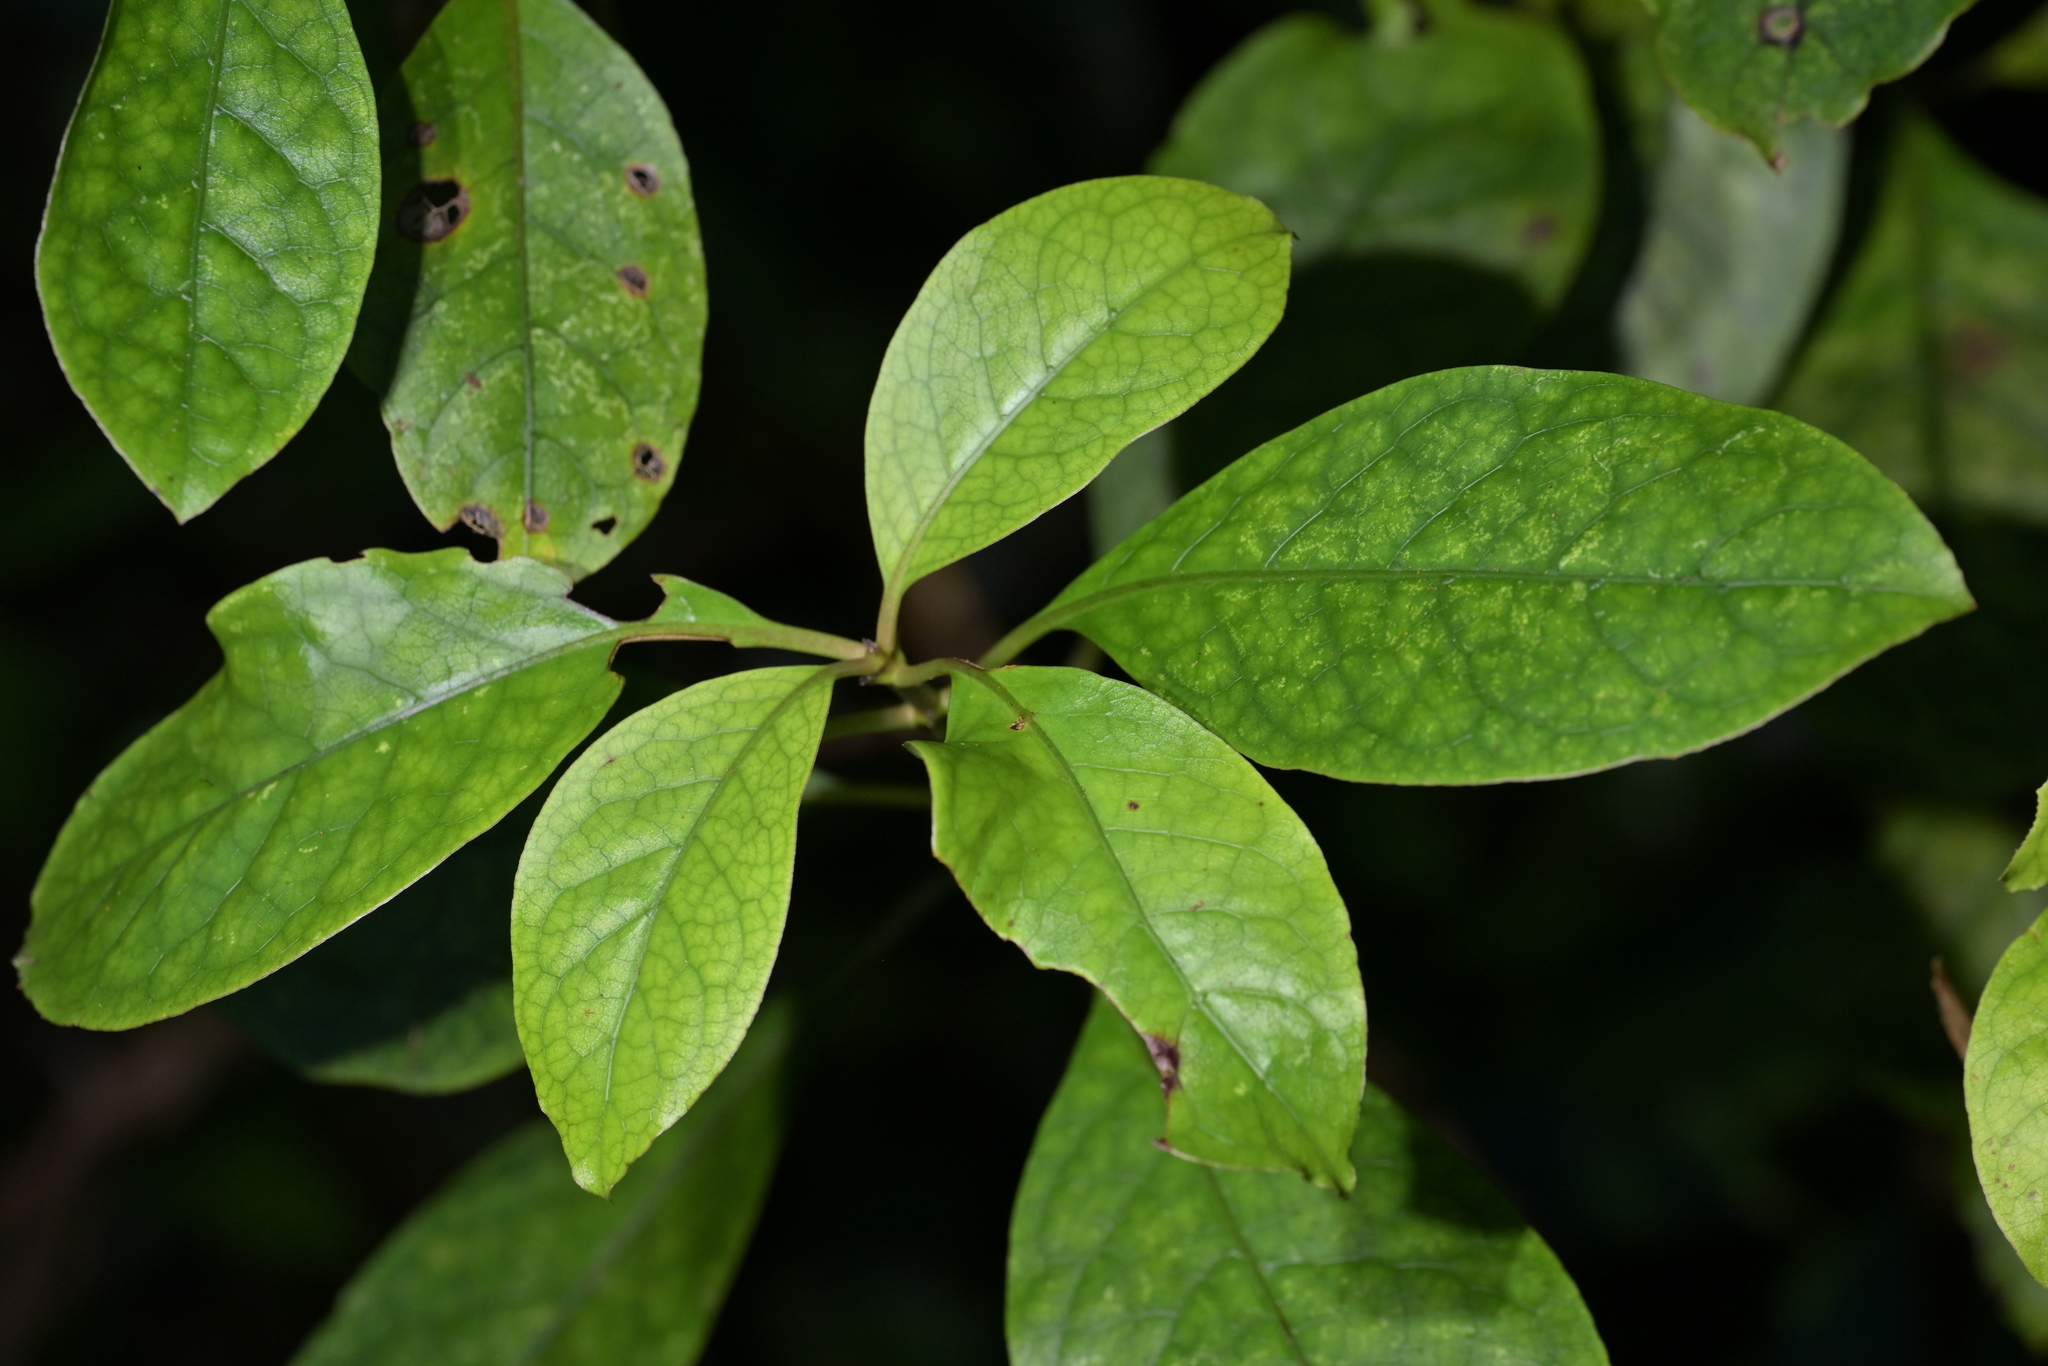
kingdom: Plantae
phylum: Tracheophyta
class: Magnoliopsida
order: Gentianales
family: Rubiaceae
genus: Coprosma
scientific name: Coprosma autumnalis
